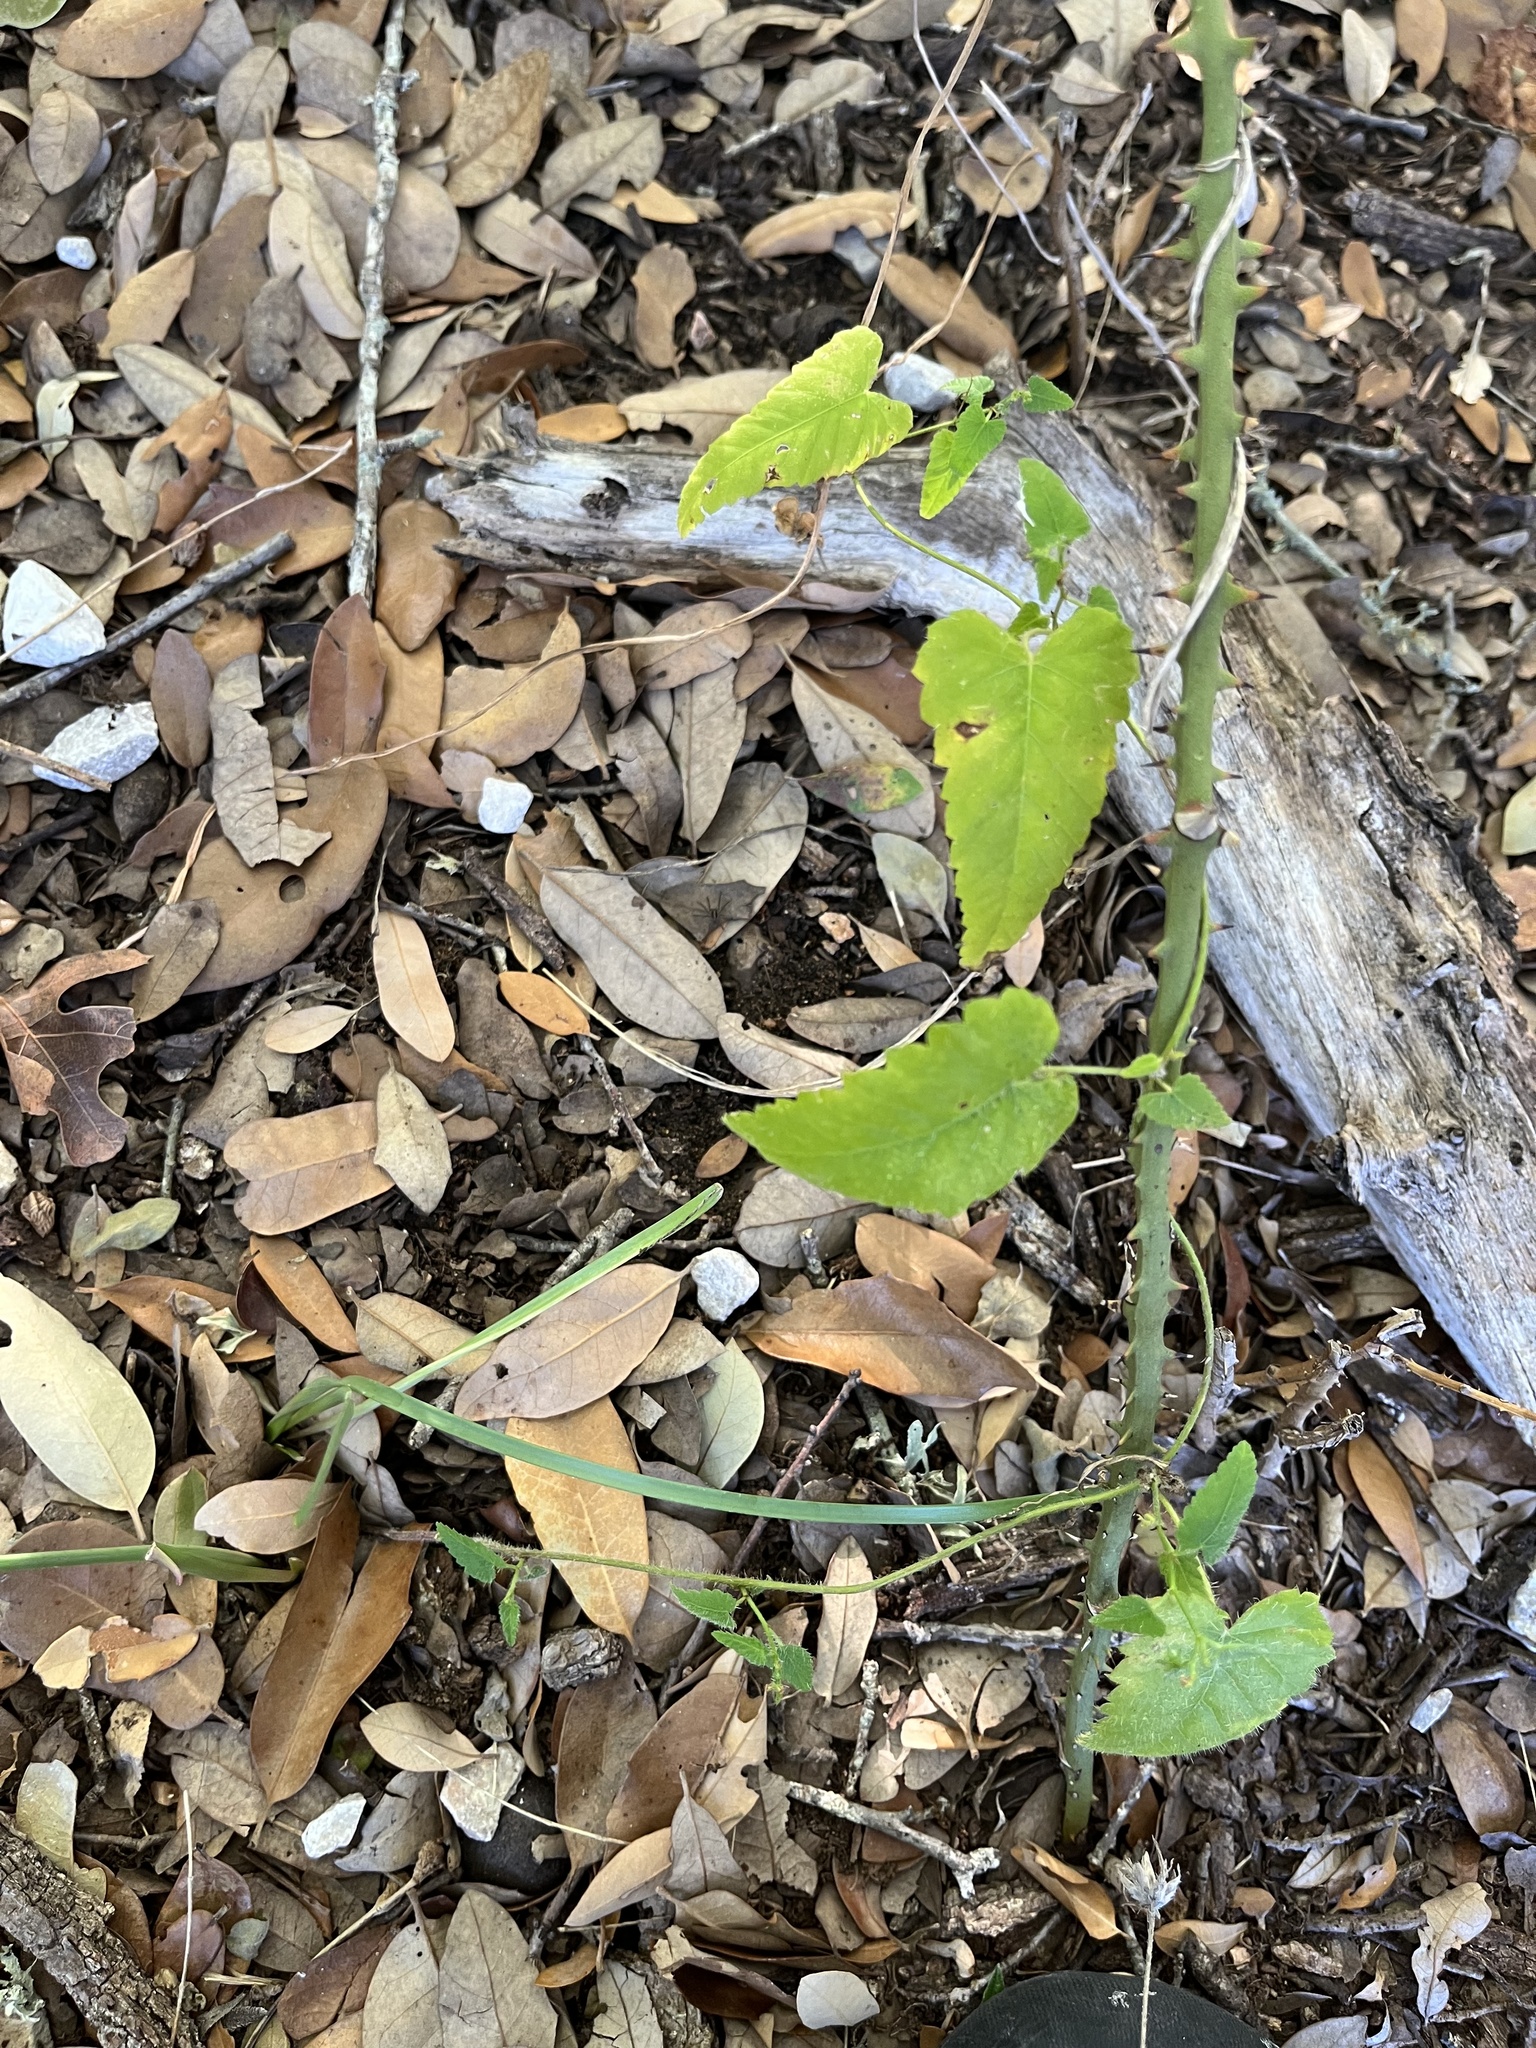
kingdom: Plantae
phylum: Tracheophyta
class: Magnoliopsida
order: Malpighiales
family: Euphorbiaceae
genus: Tragia
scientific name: Tragia urticifolia
